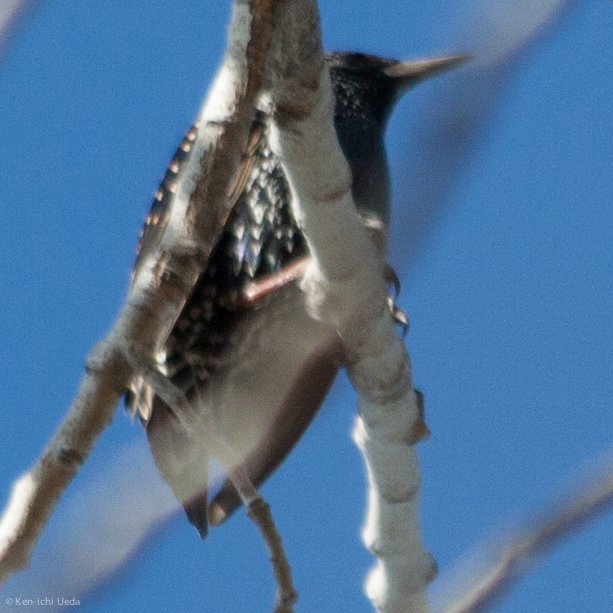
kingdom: Animalia
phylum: Chordata
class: Aves
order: Passeriformes
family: Sturnidae
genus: Sturnus
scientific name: Sturnus vulgaris
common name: Common starling
